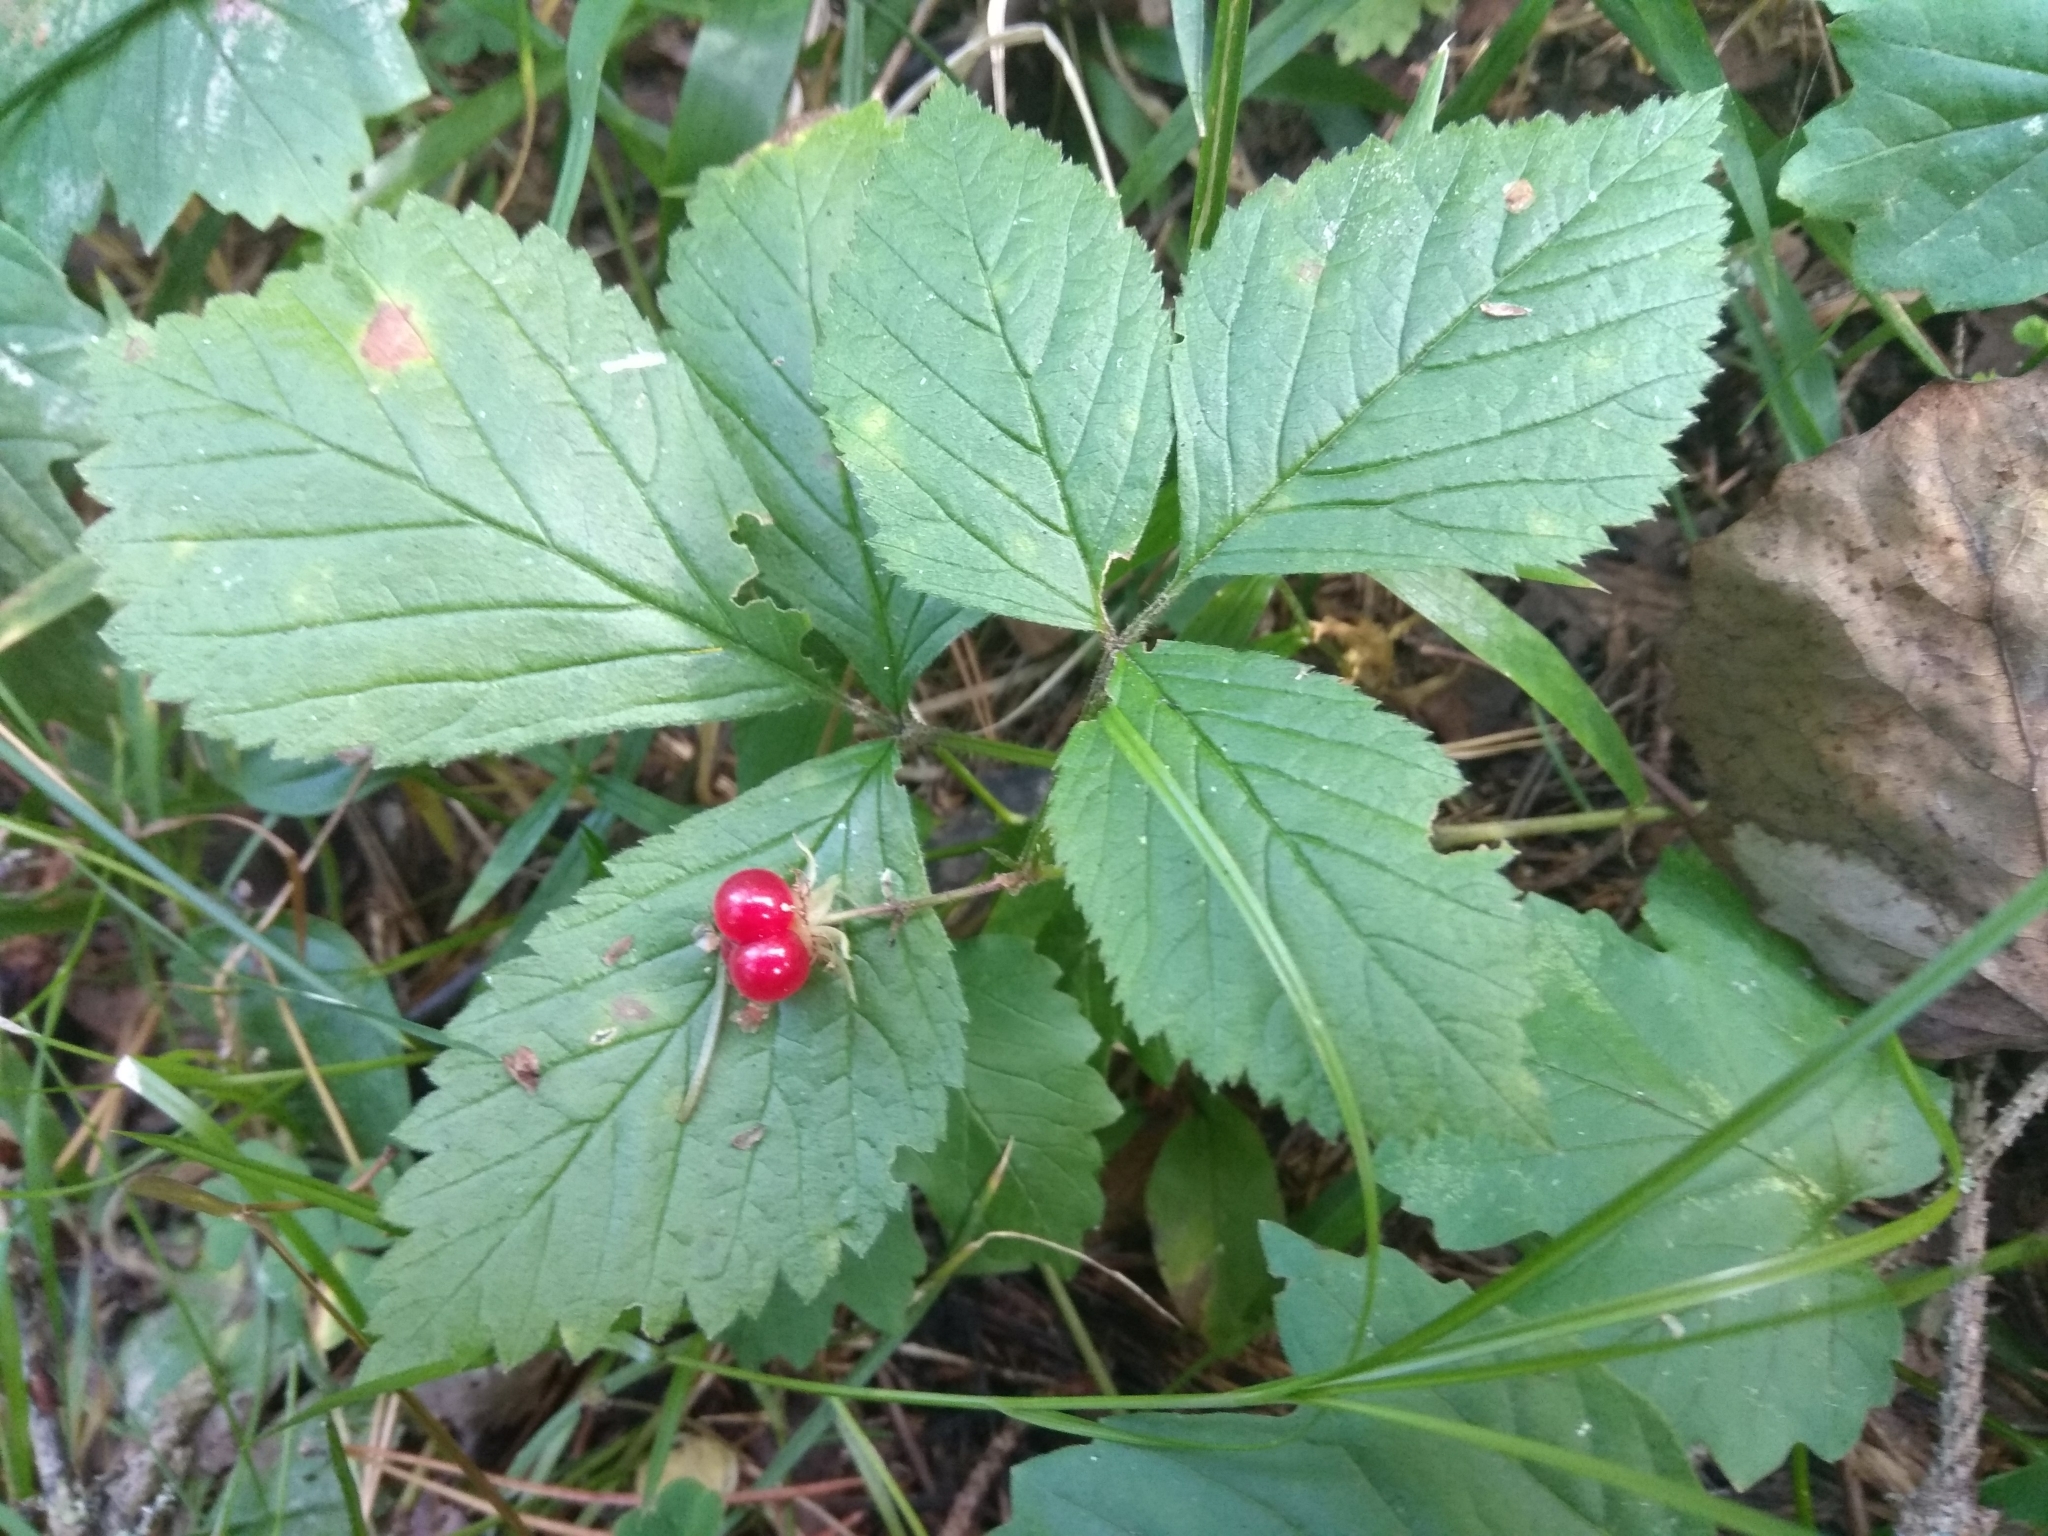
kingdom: Plantae
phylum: Tracheophyta
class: Magnoliopsida
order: Rosales
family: Rosaceae
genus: Rubus
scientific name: Rubus saxatilis
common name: Stone bramble
